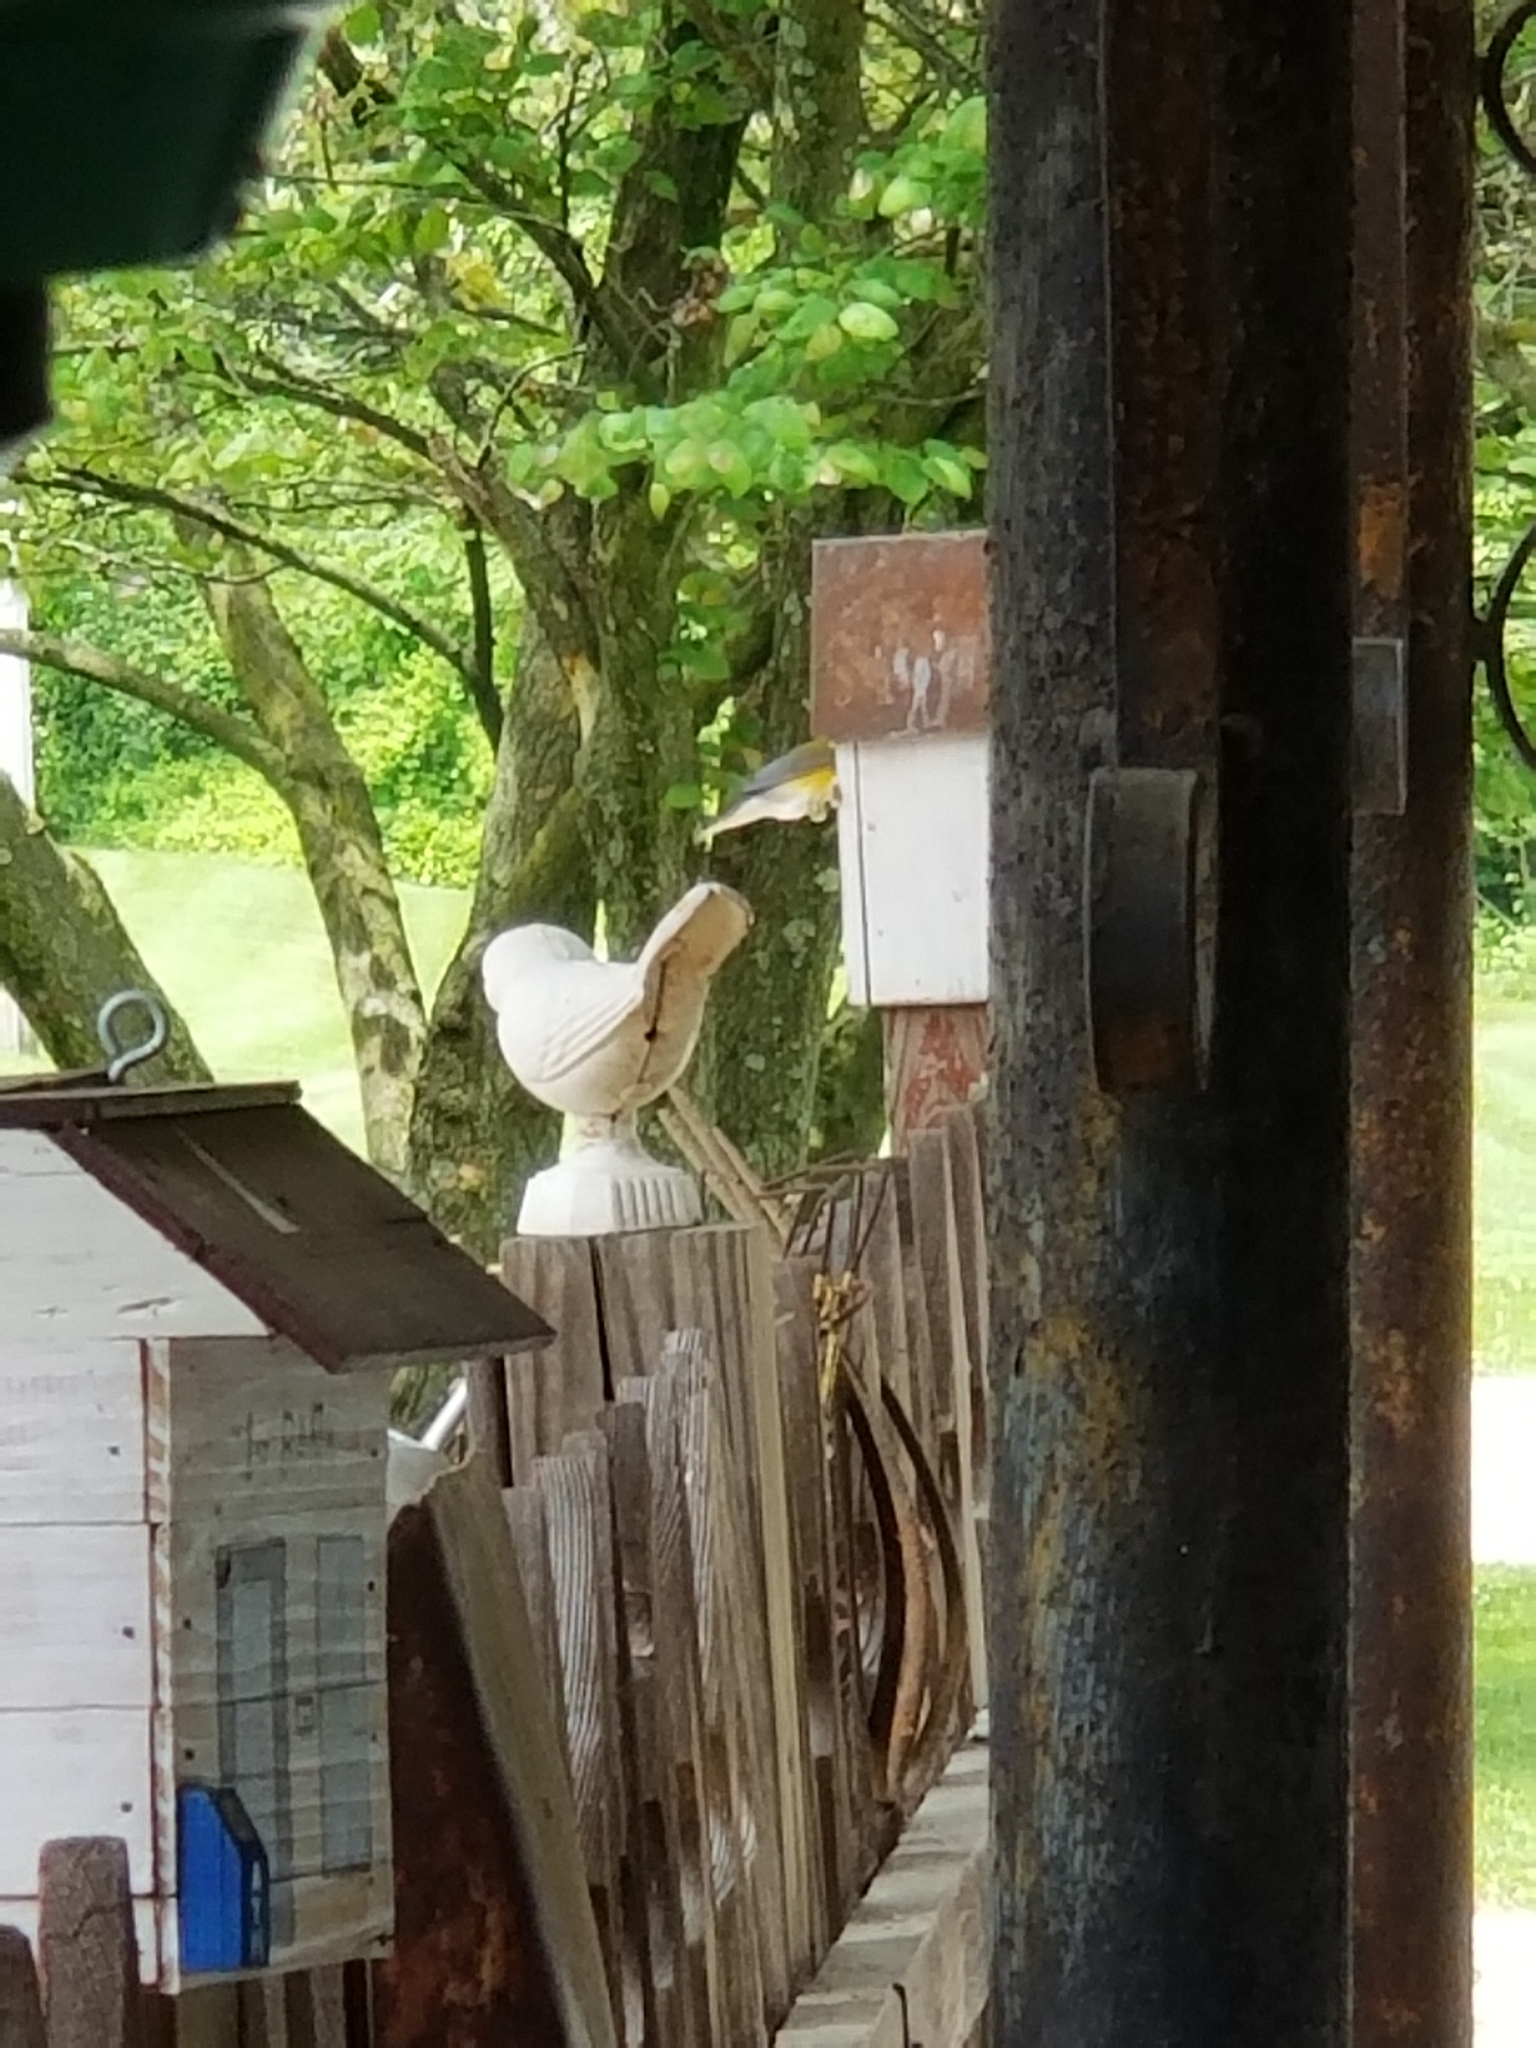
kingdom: Animalia
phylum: Chordata
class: Aves
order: Passeriformes
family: Parulidae
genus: Protonotaria
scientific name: Protonotaria citrea
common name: Prothonotary warbler
